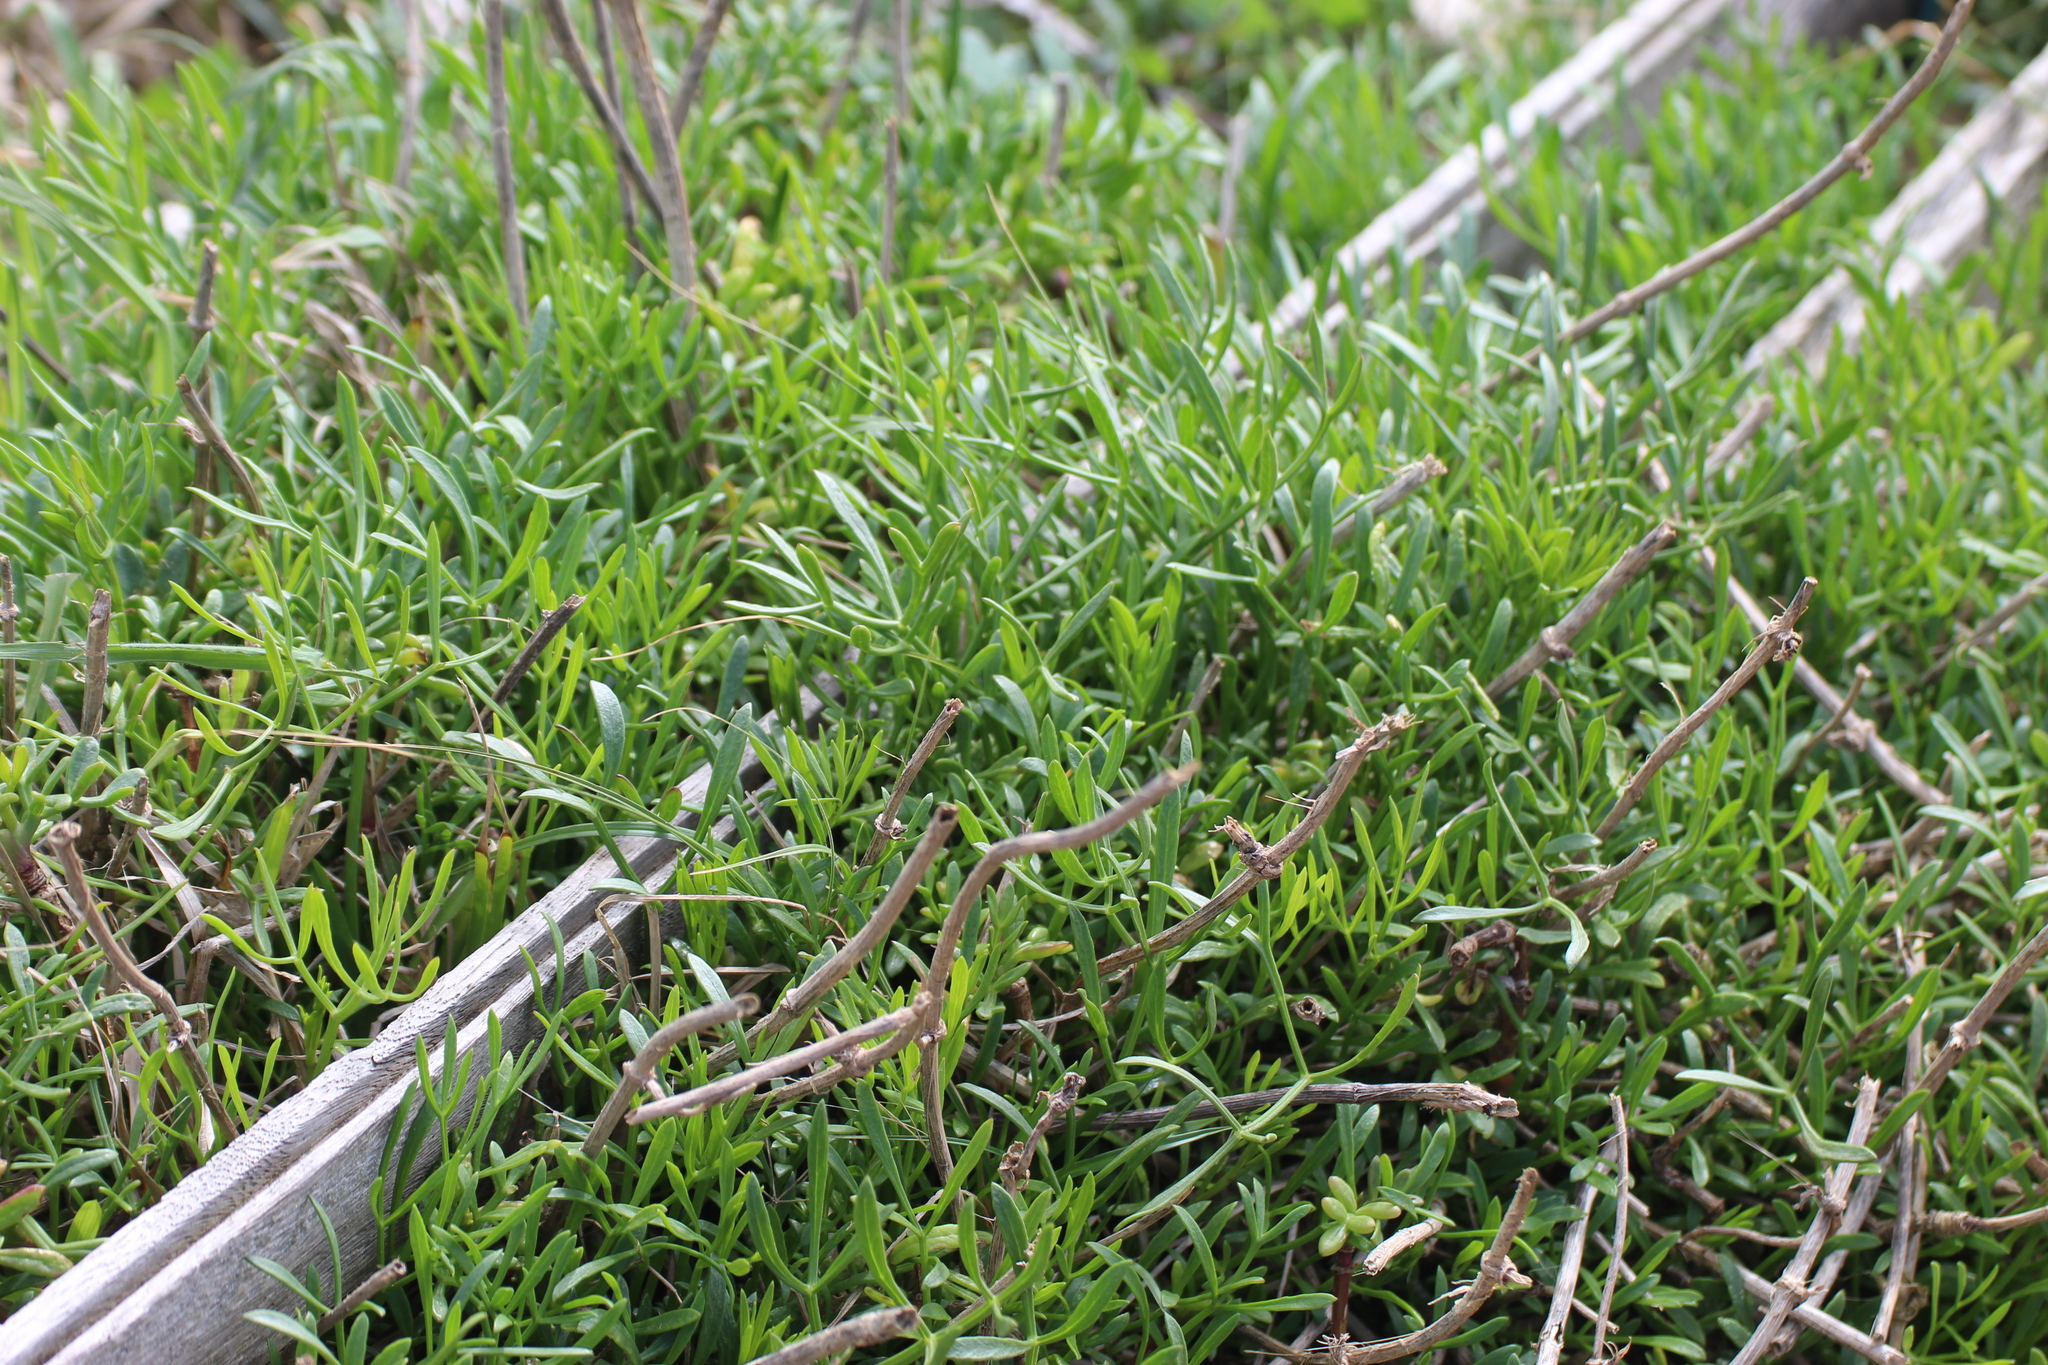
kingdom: Plantae
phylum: Tracheophyta
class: Magnoliopsida
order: Apiales
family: Apiaceae
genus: Crithmum
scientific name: Crithmum maritimum
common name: Rock samphire
